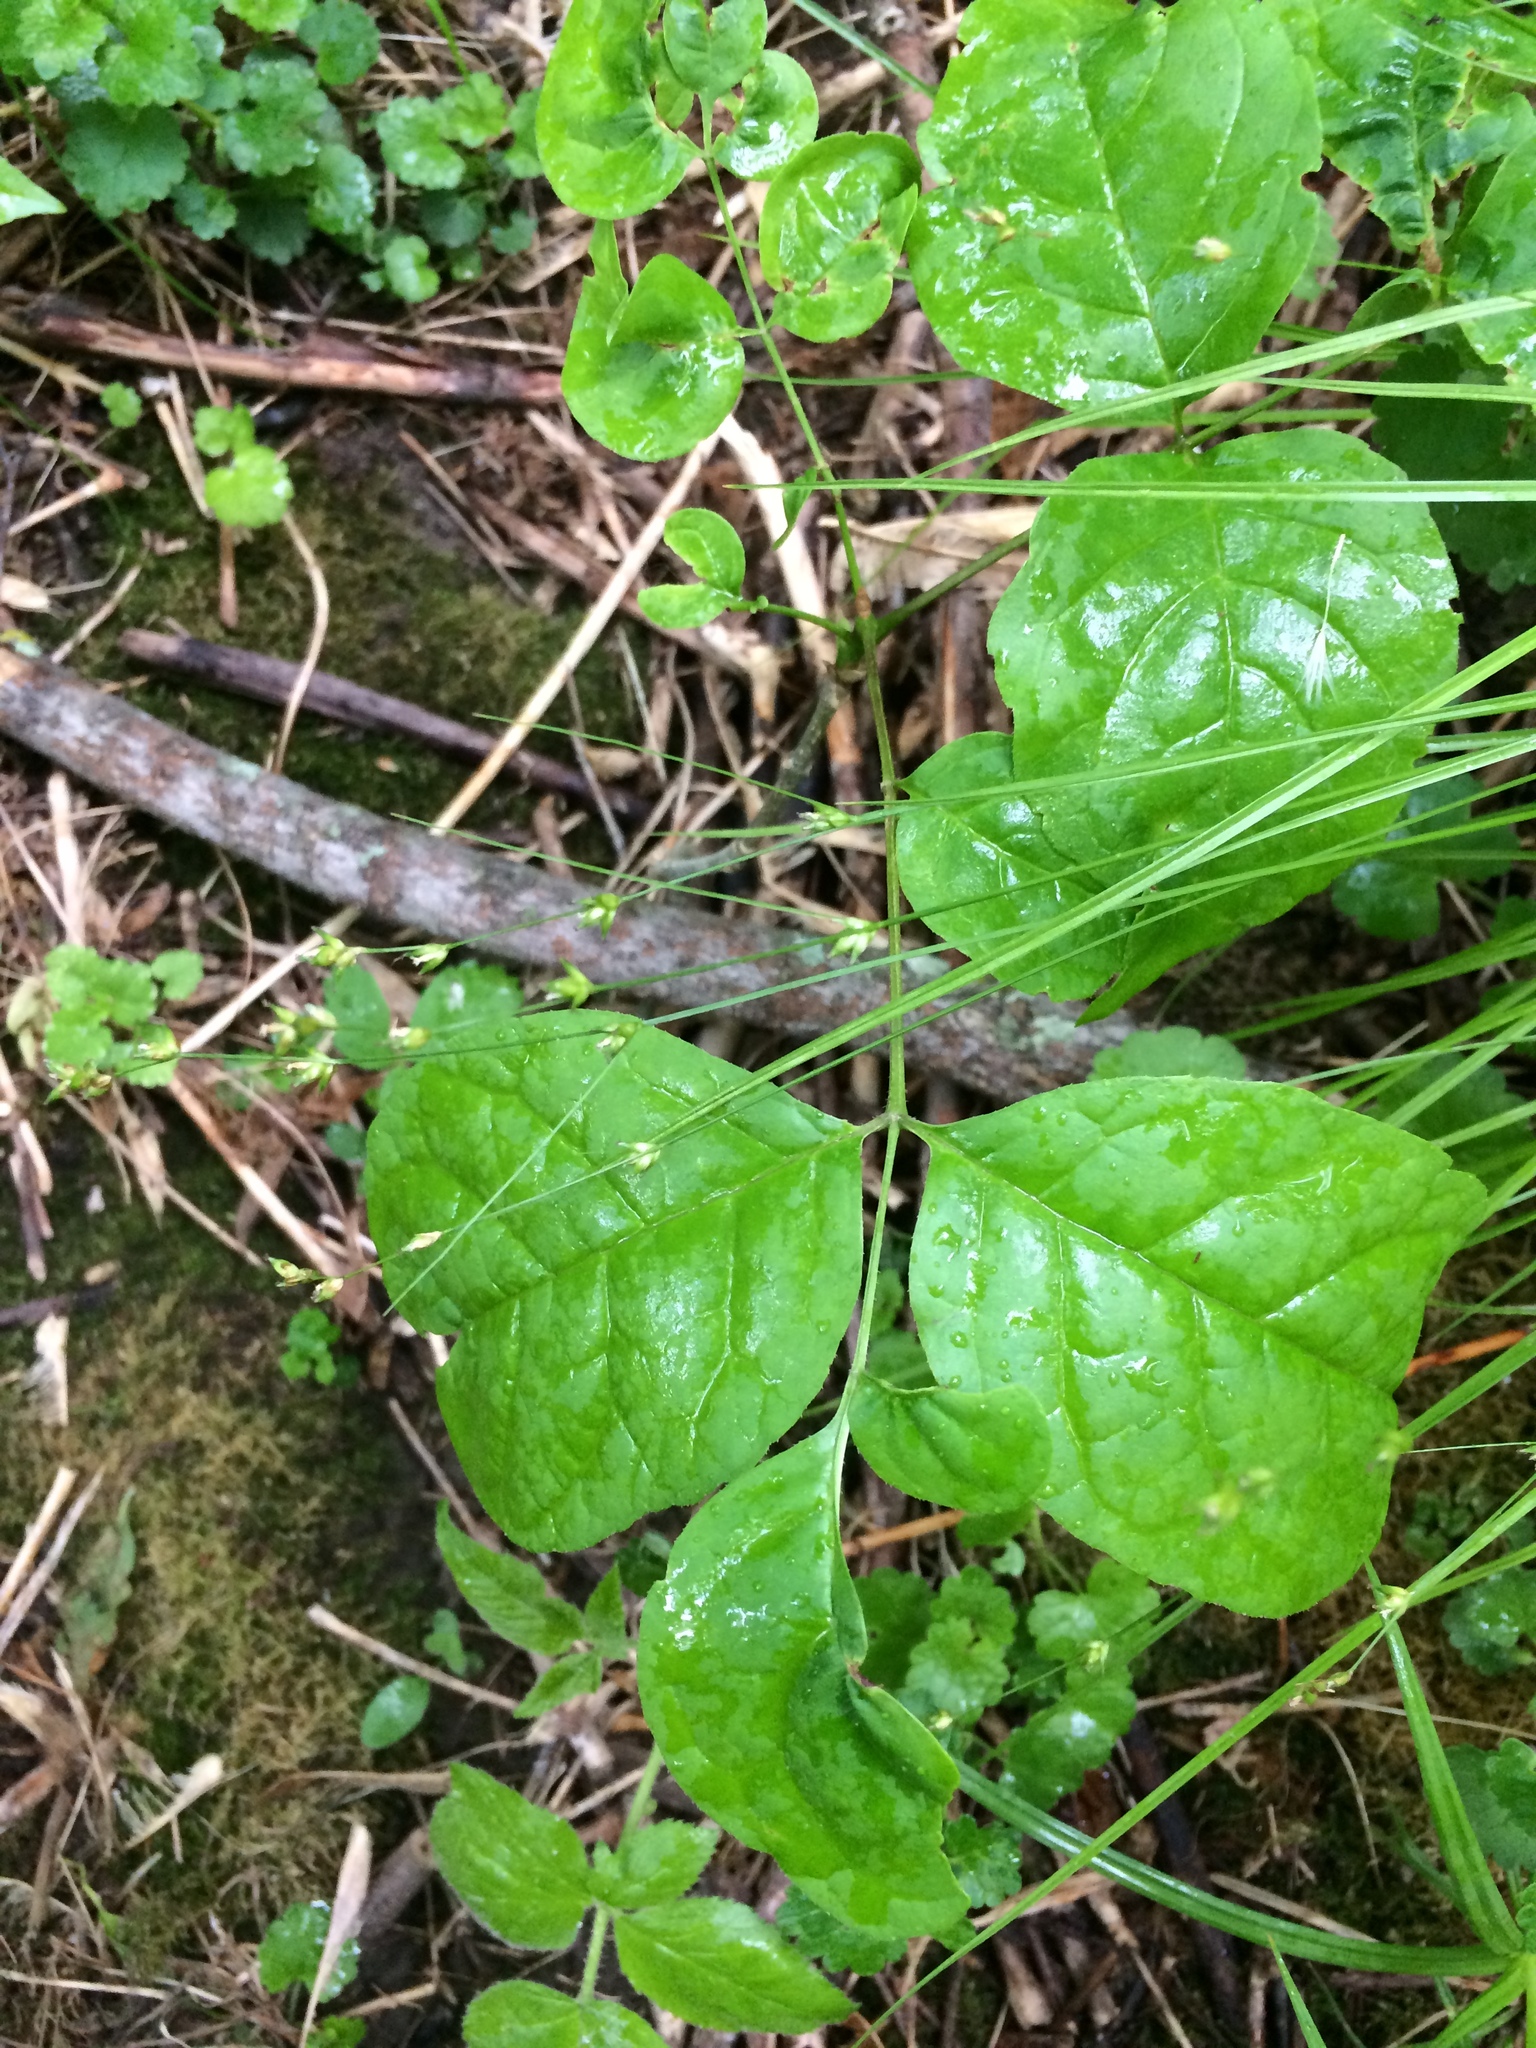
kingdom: Plantae
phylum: Tracheophyta
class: Liliopsida
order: Poales
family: Cyperaceae
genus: Carex
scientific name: Carex radiata
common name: Eastern star sedge
